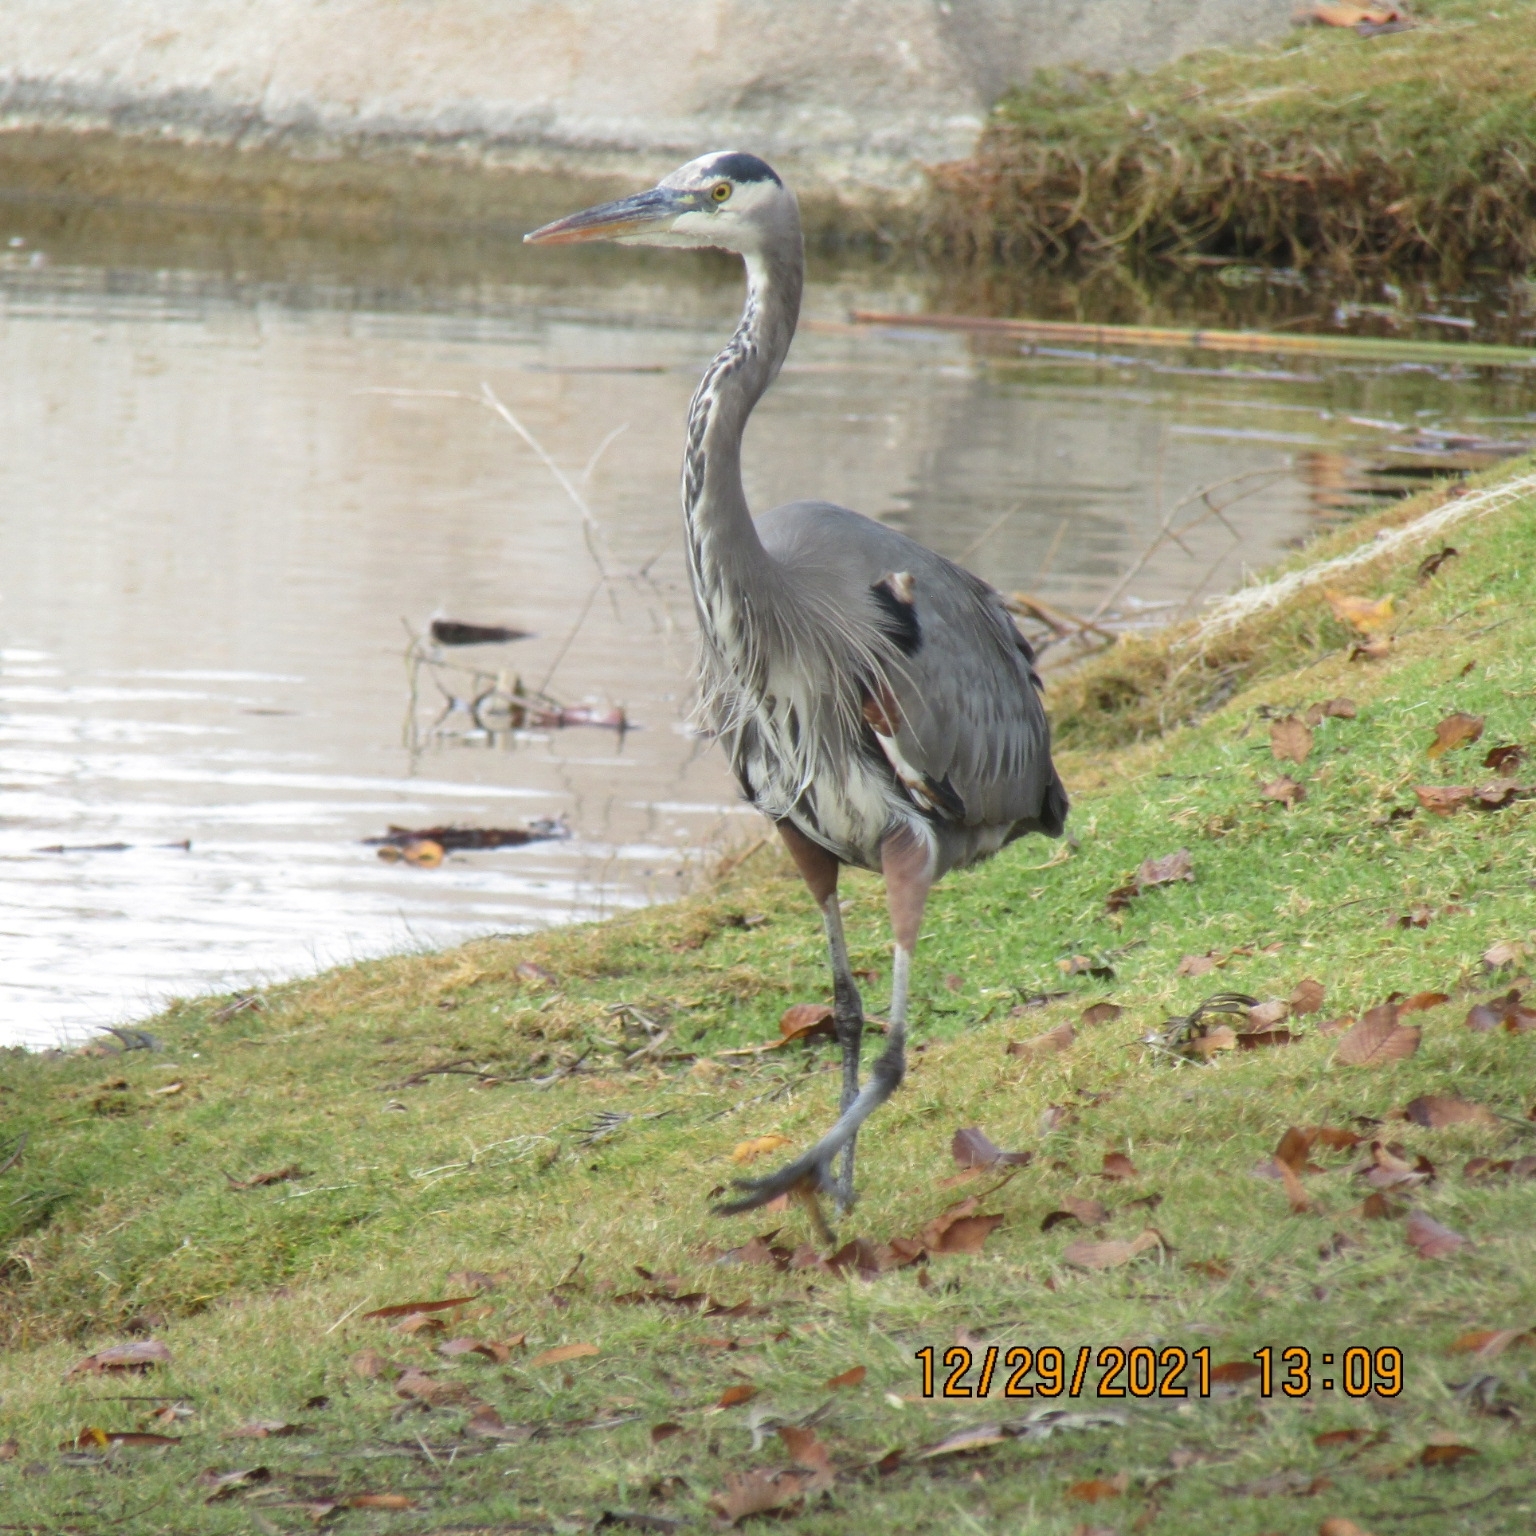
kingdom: Animalia
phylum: Chordata
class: Aves
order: Pelecaniformes
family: Ardeidae
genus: Ardea
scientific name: Ardea herodias
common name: Great blue heron
